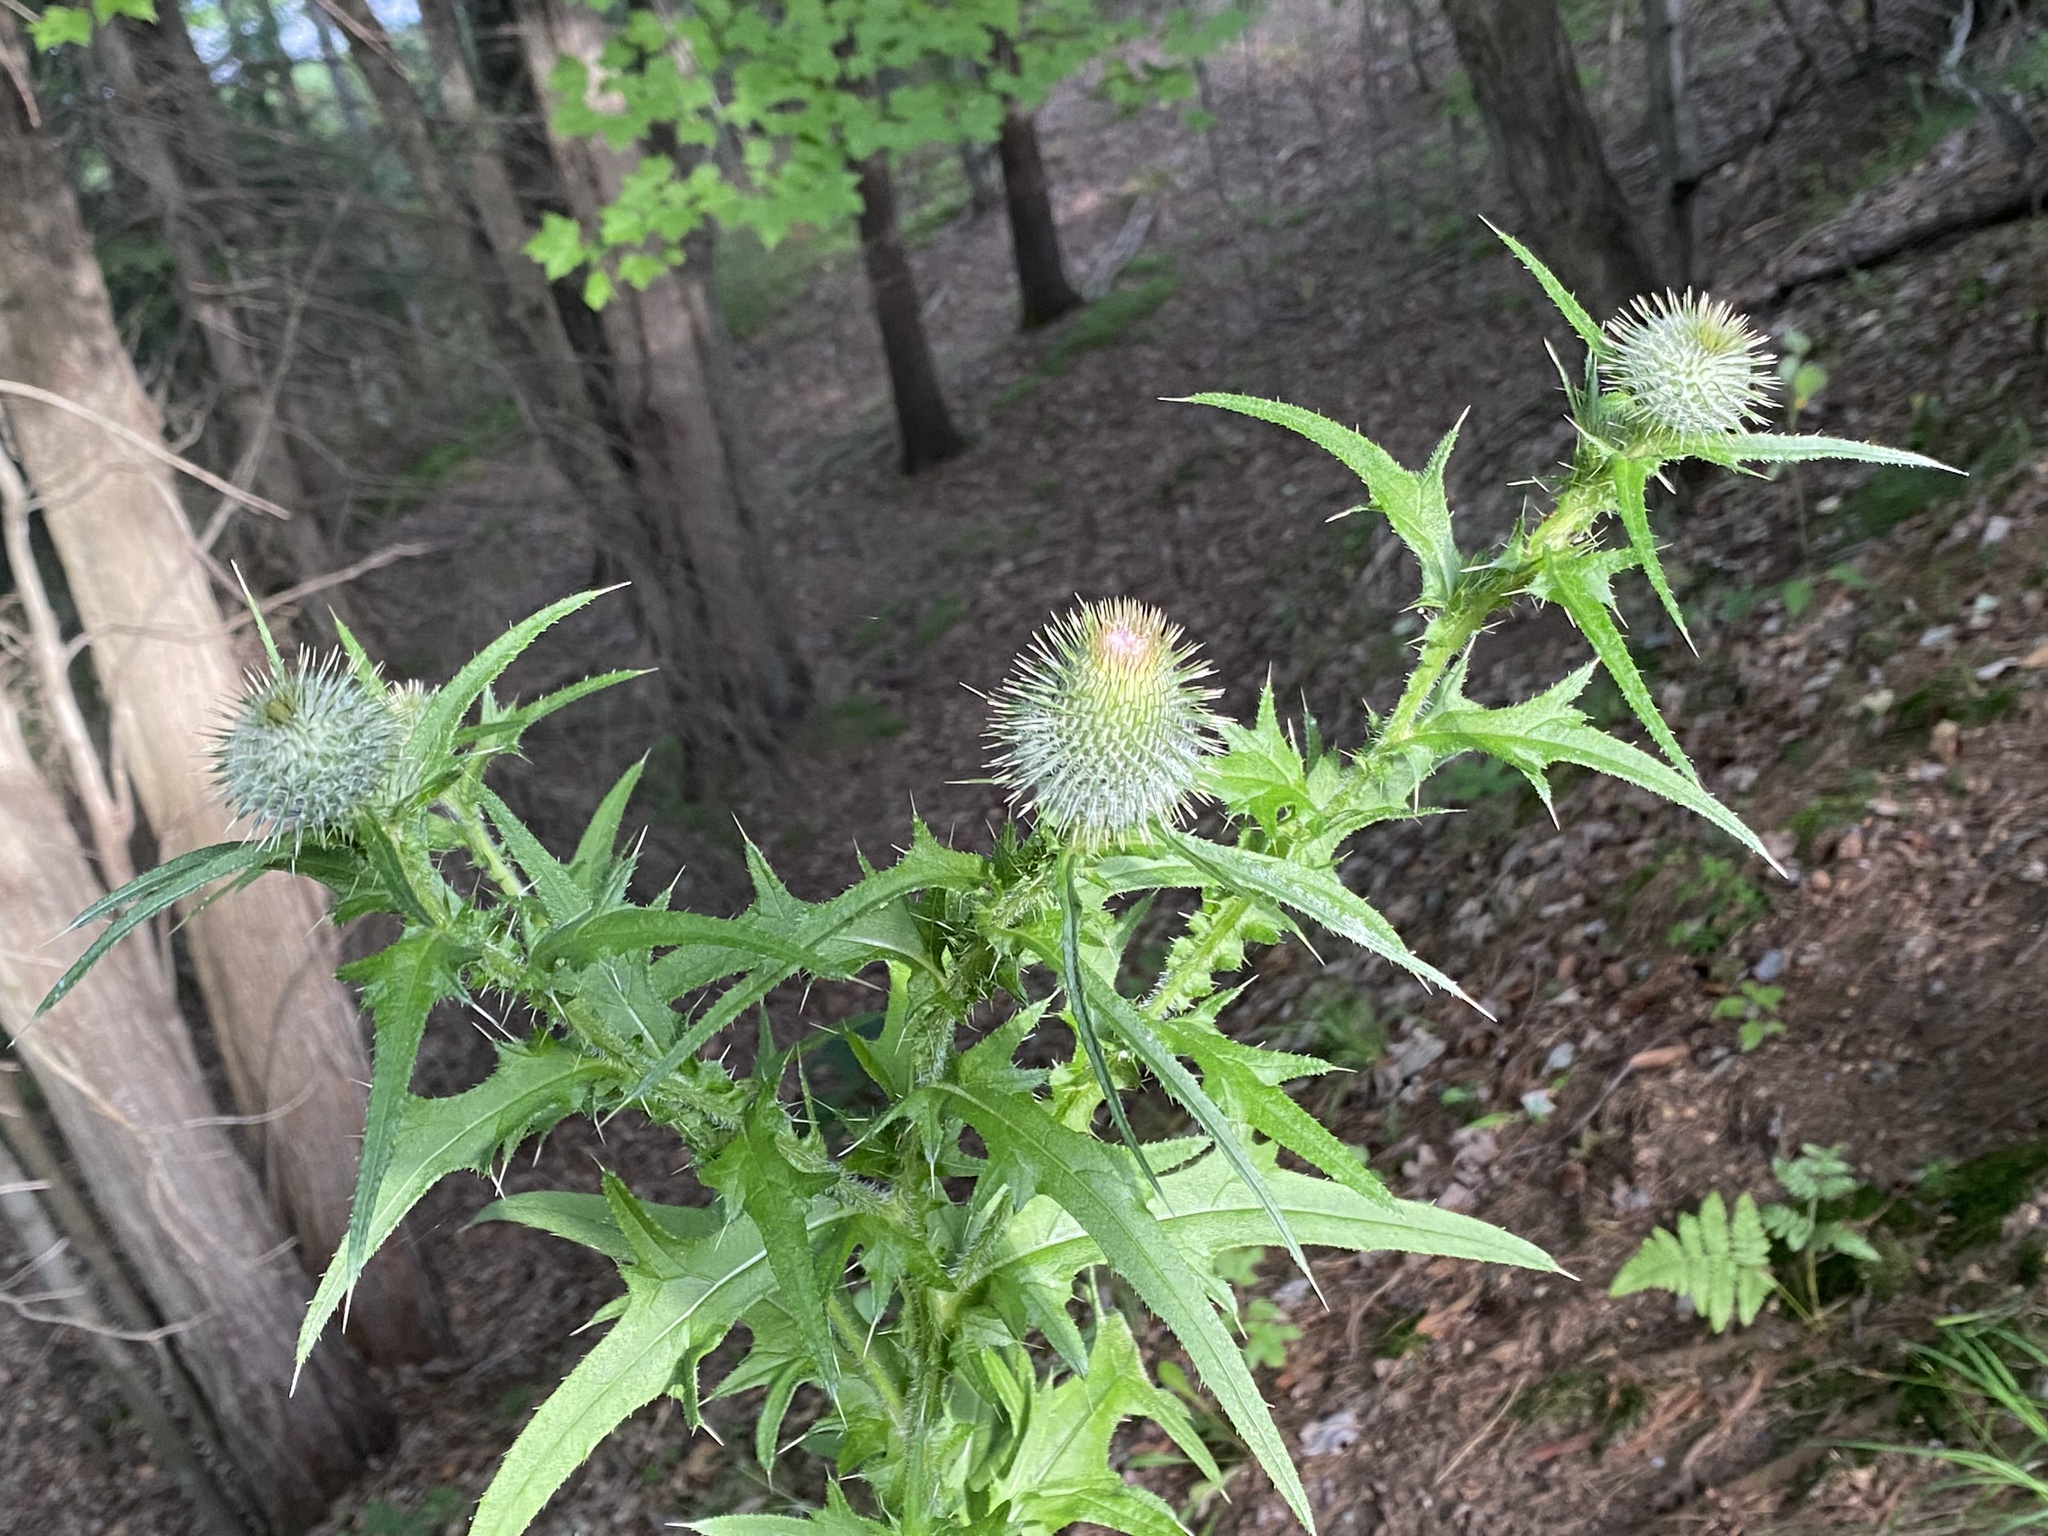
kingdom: Plantae
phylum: Tracheophyta
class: Magnoliopsida
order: Asterales
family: Asteraceae
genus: Cirsium
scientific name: Cirsium vulgare
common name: Bull thistle
